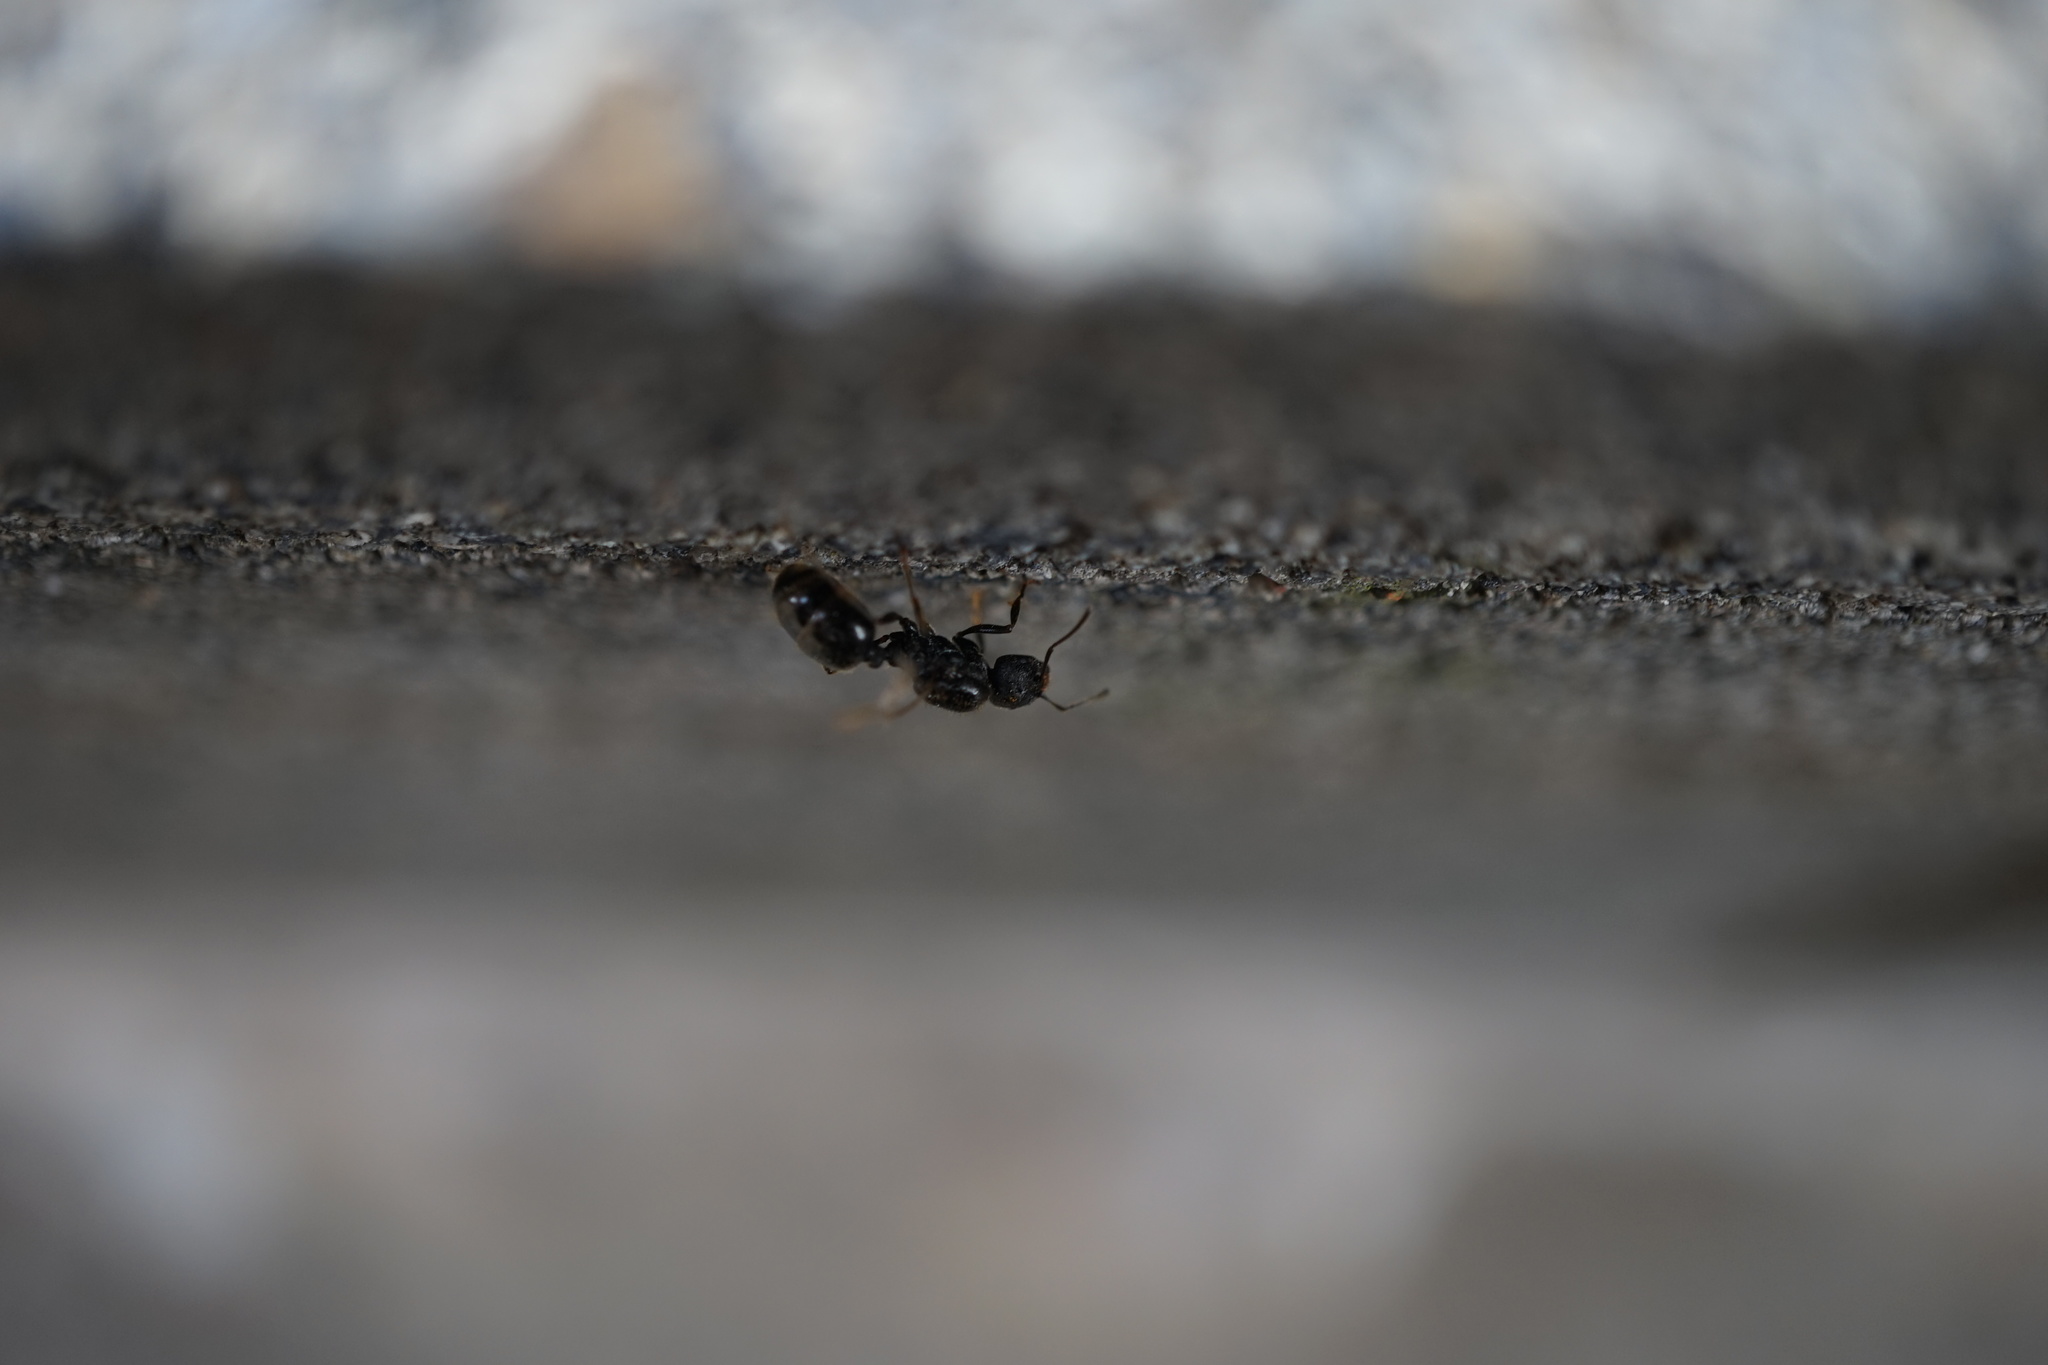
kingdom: Animalia
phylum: Arthropoda
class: Insecta
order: Hymenoptera
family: Formicidae
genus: Messor
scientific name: Messor aciculatus
